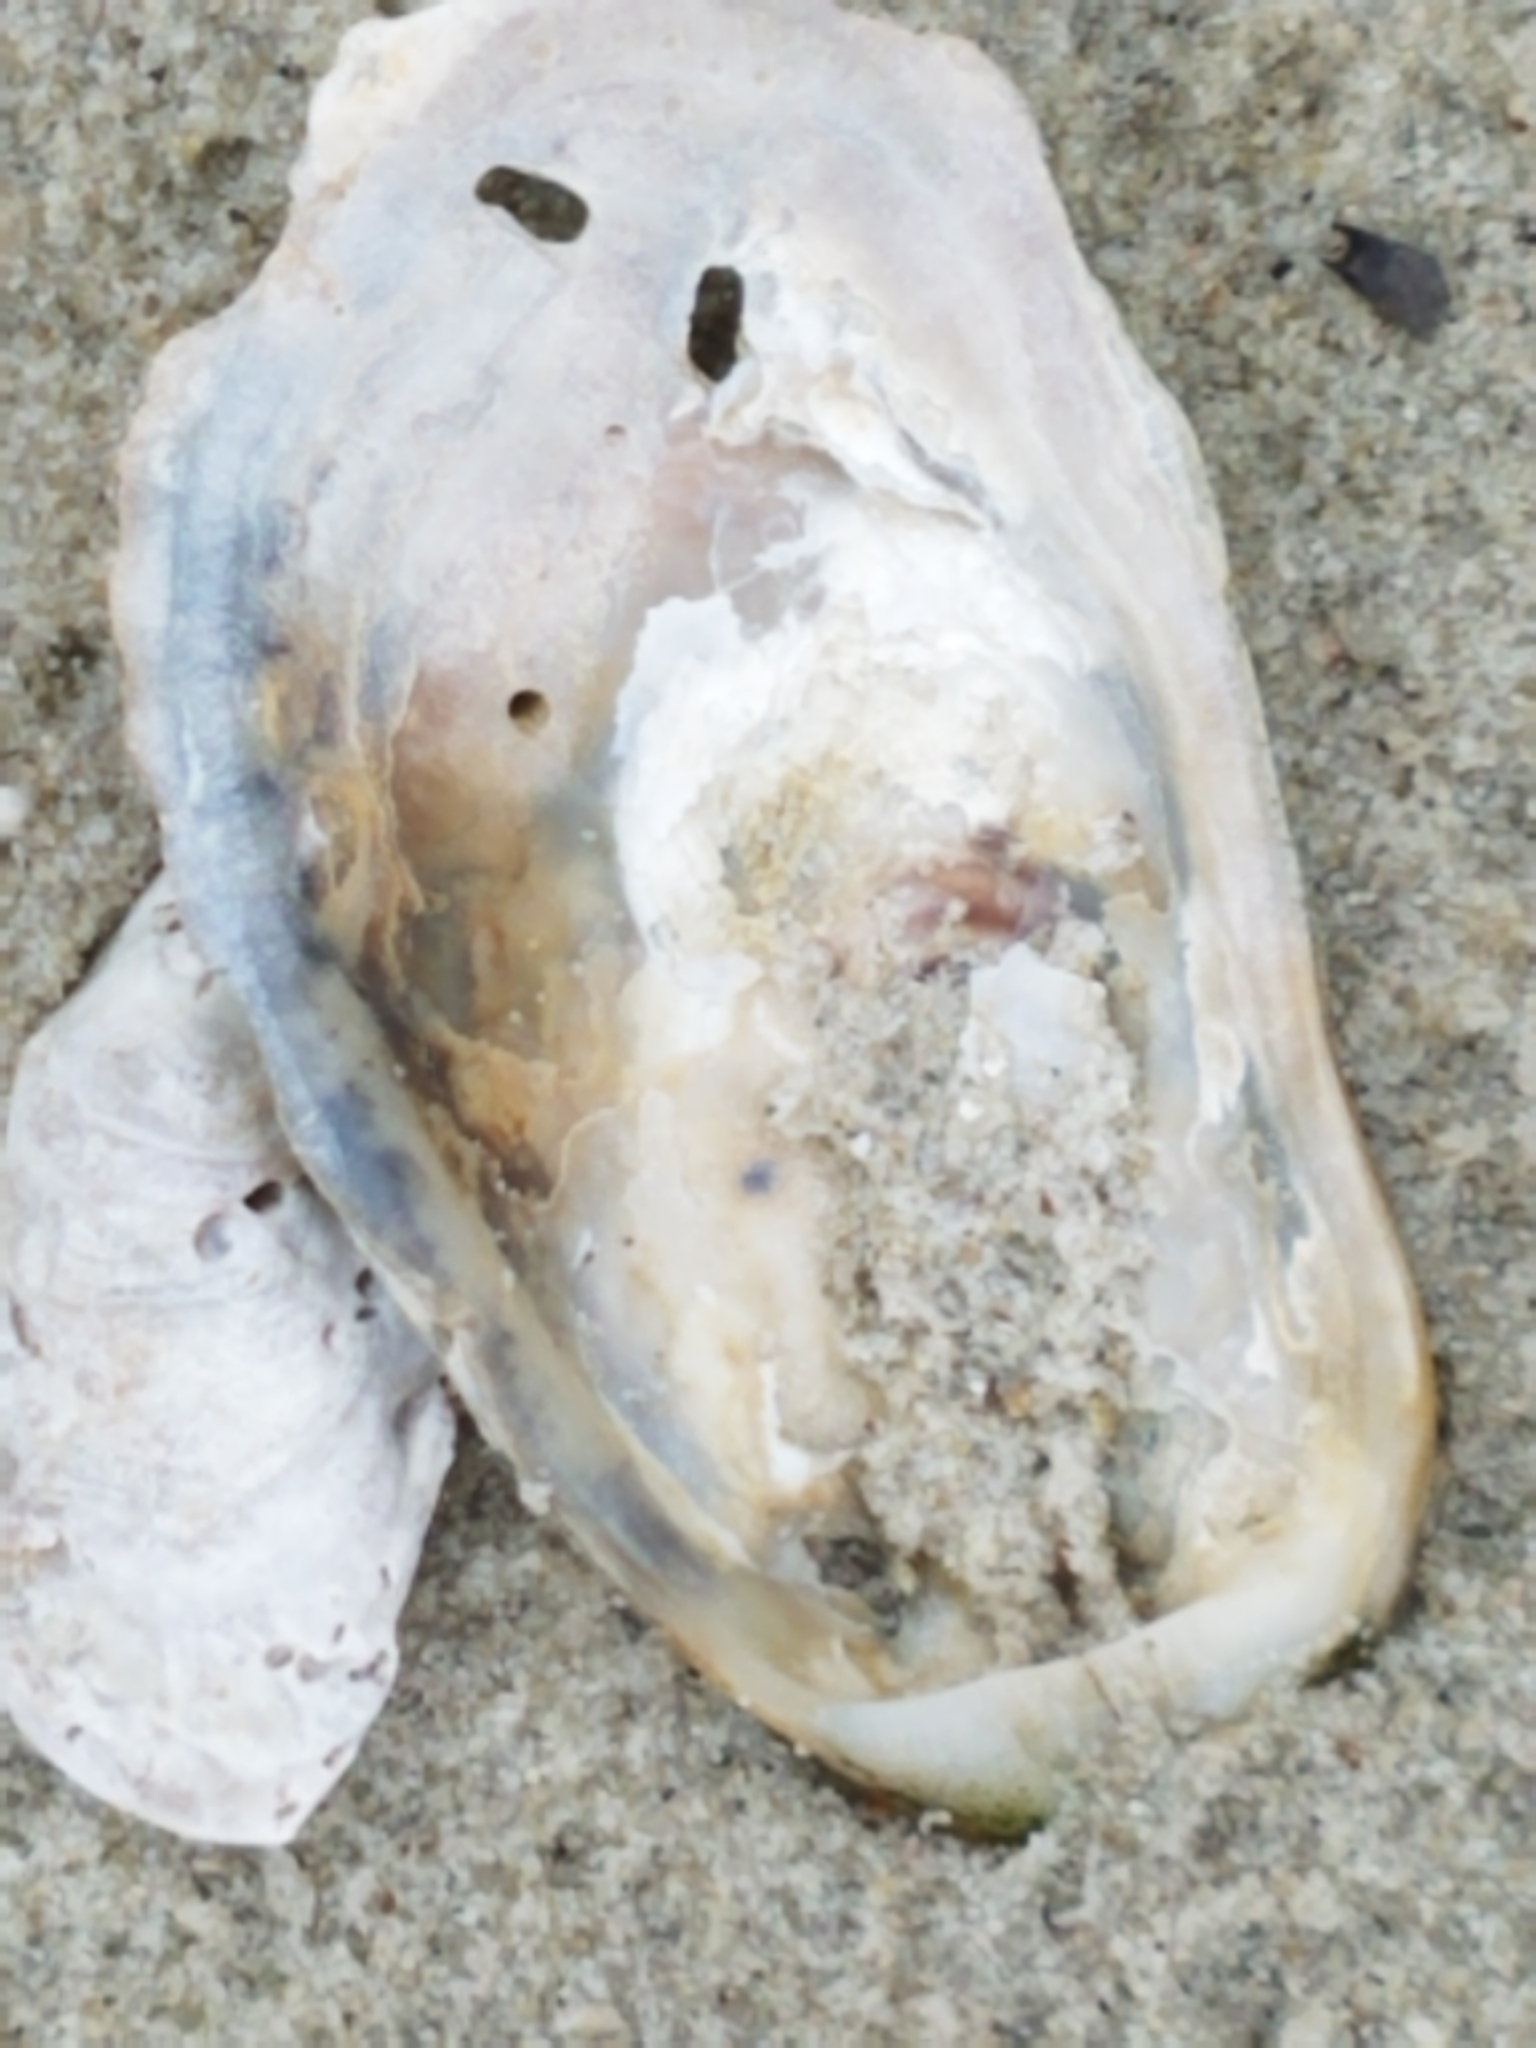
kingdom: Animalia
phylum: Mollusca
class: Bivalvia
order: Ostreida
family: Ostreidae
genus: Crassostrea
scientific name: Crassostrea virginica
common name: American oyster
